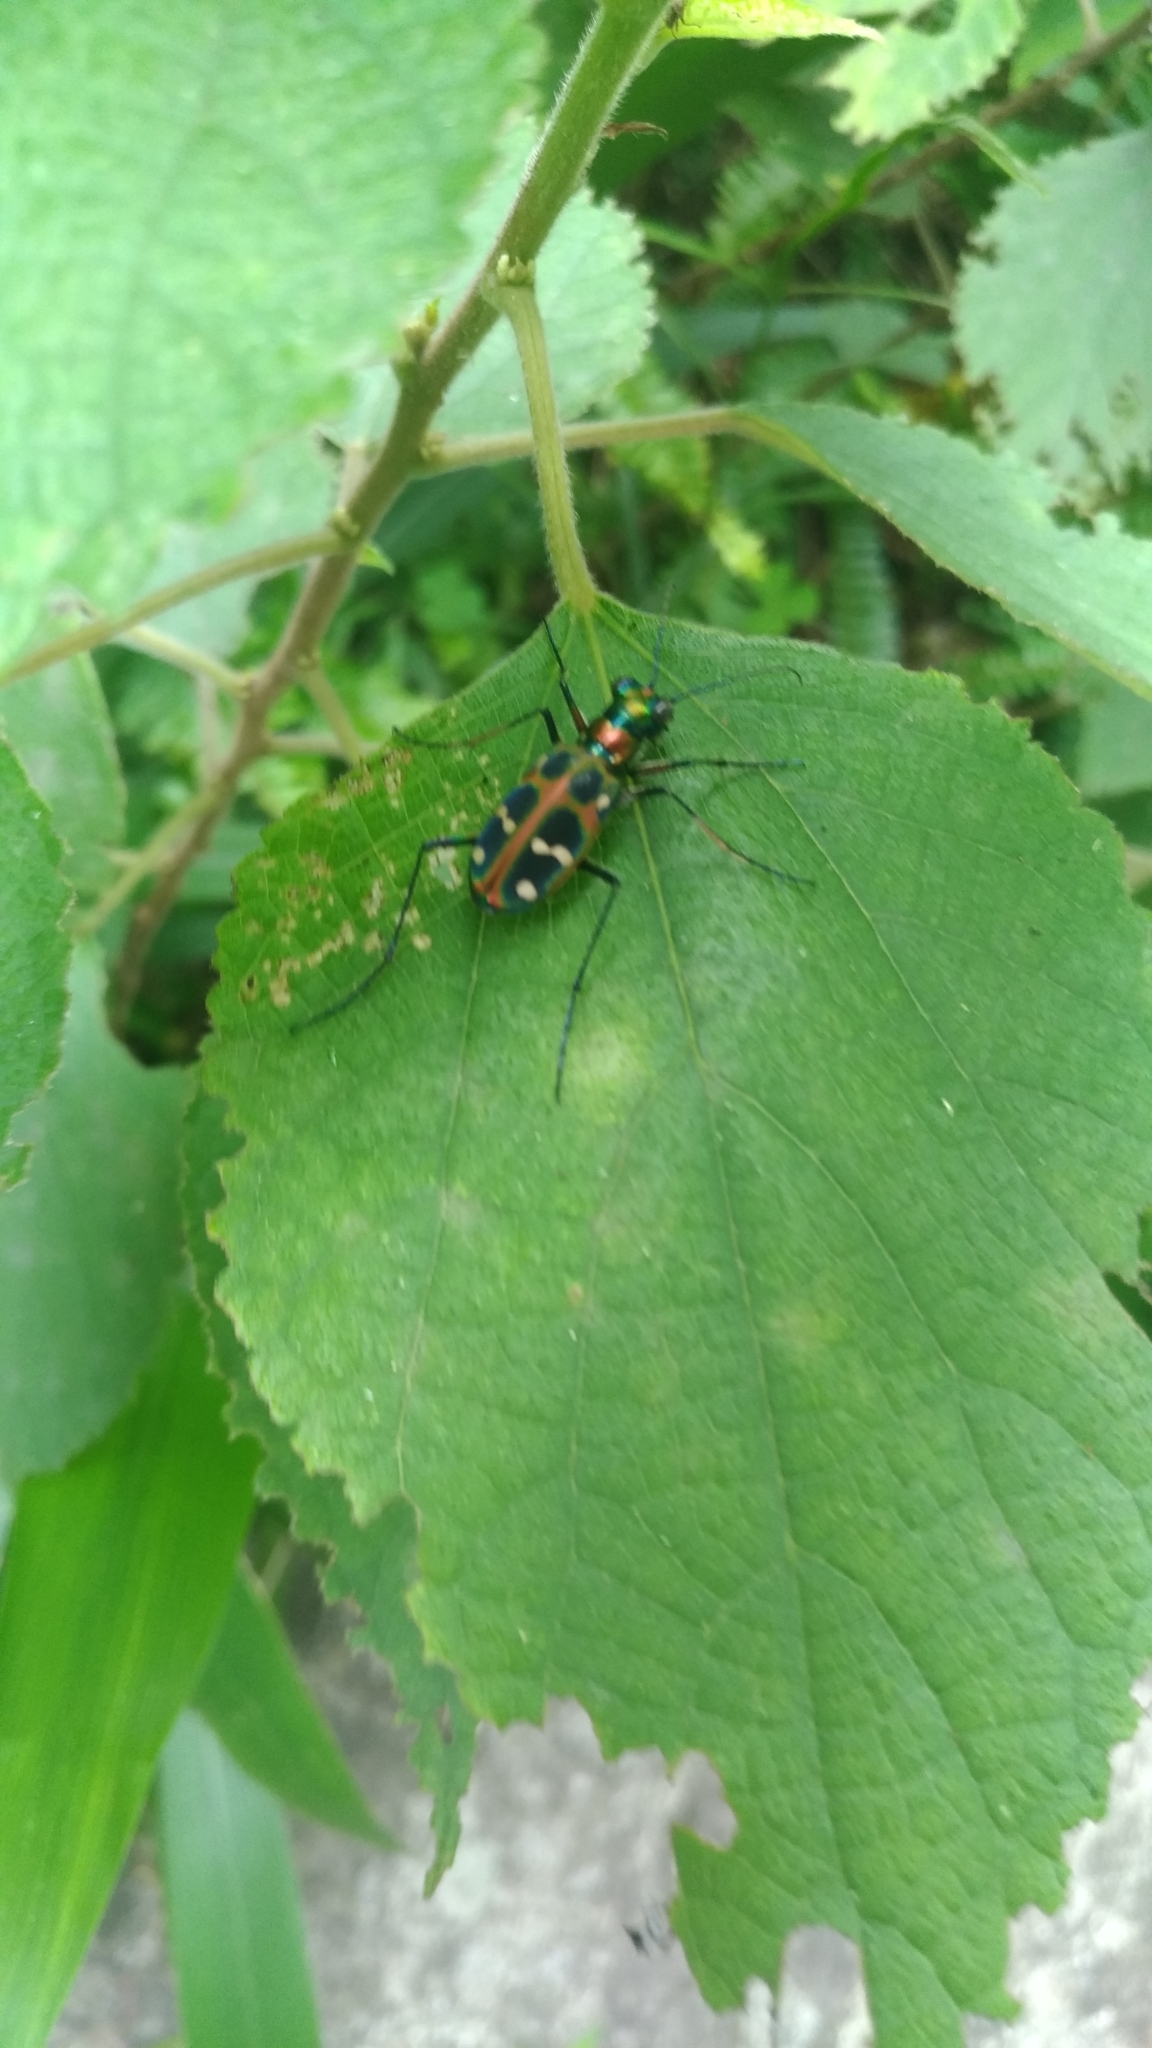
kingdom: Animalia
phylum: Arthropoda
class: Insecta
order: Coleoptera
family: Carabidae
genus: Cicindela
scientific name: Cicindela chinensis
